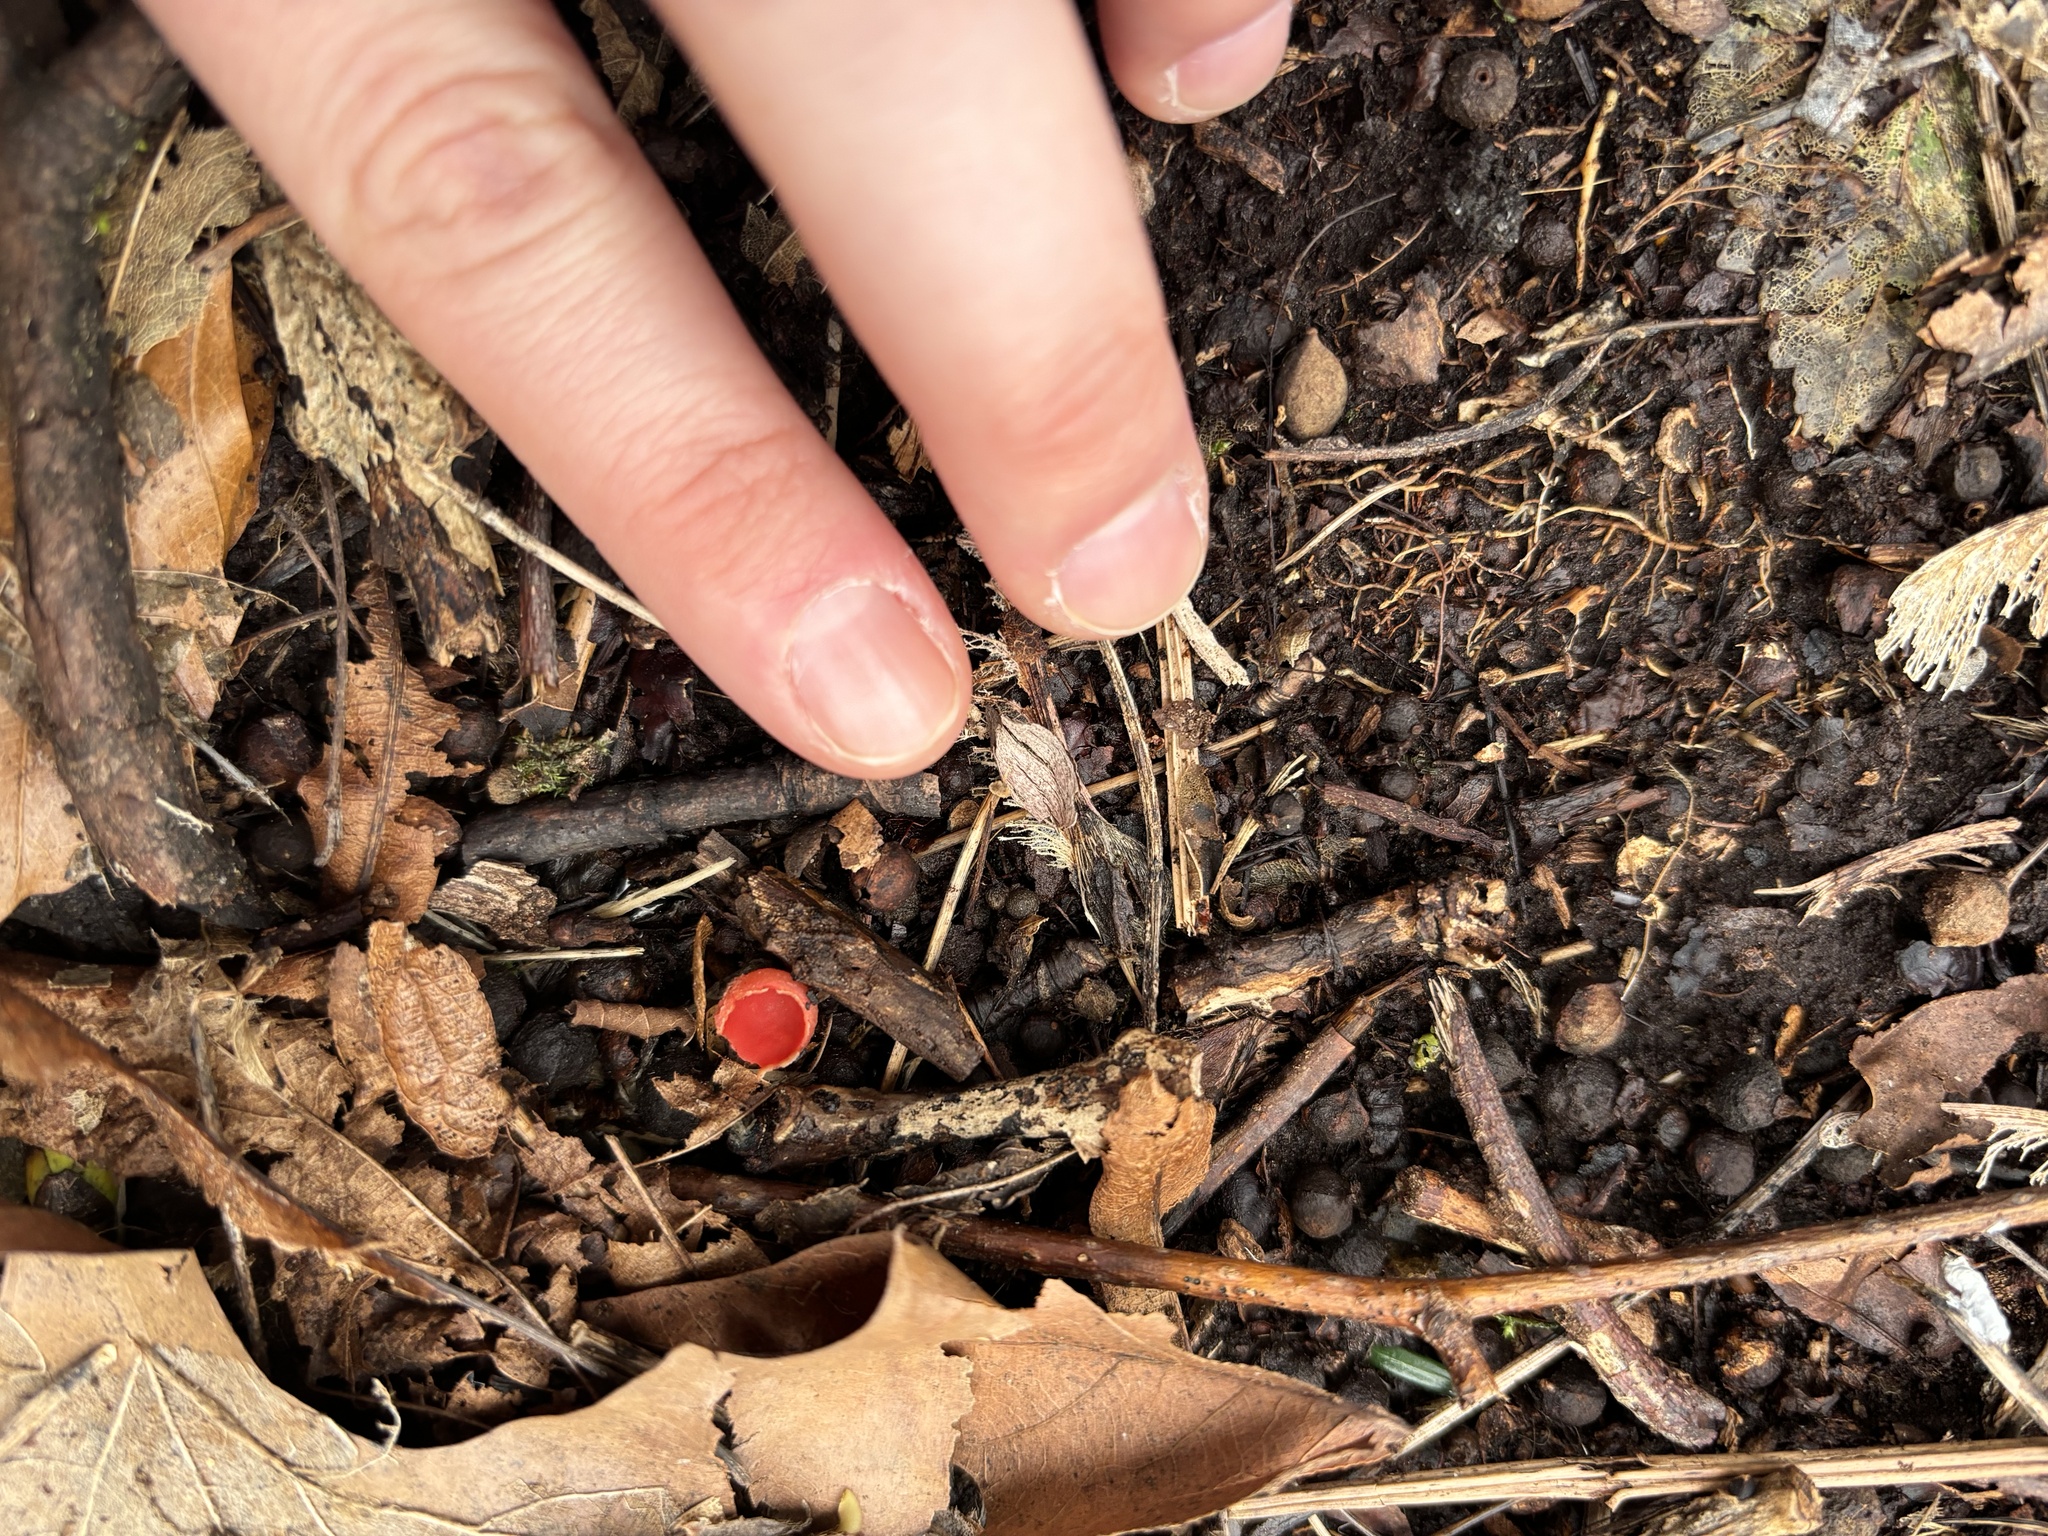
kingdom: Fungi
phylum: Ascomycota
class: Pezizomycetes
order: Pezizales
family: Sarcoscyphaceae
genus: Sarcoscypha
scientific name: Sarcoscypha
